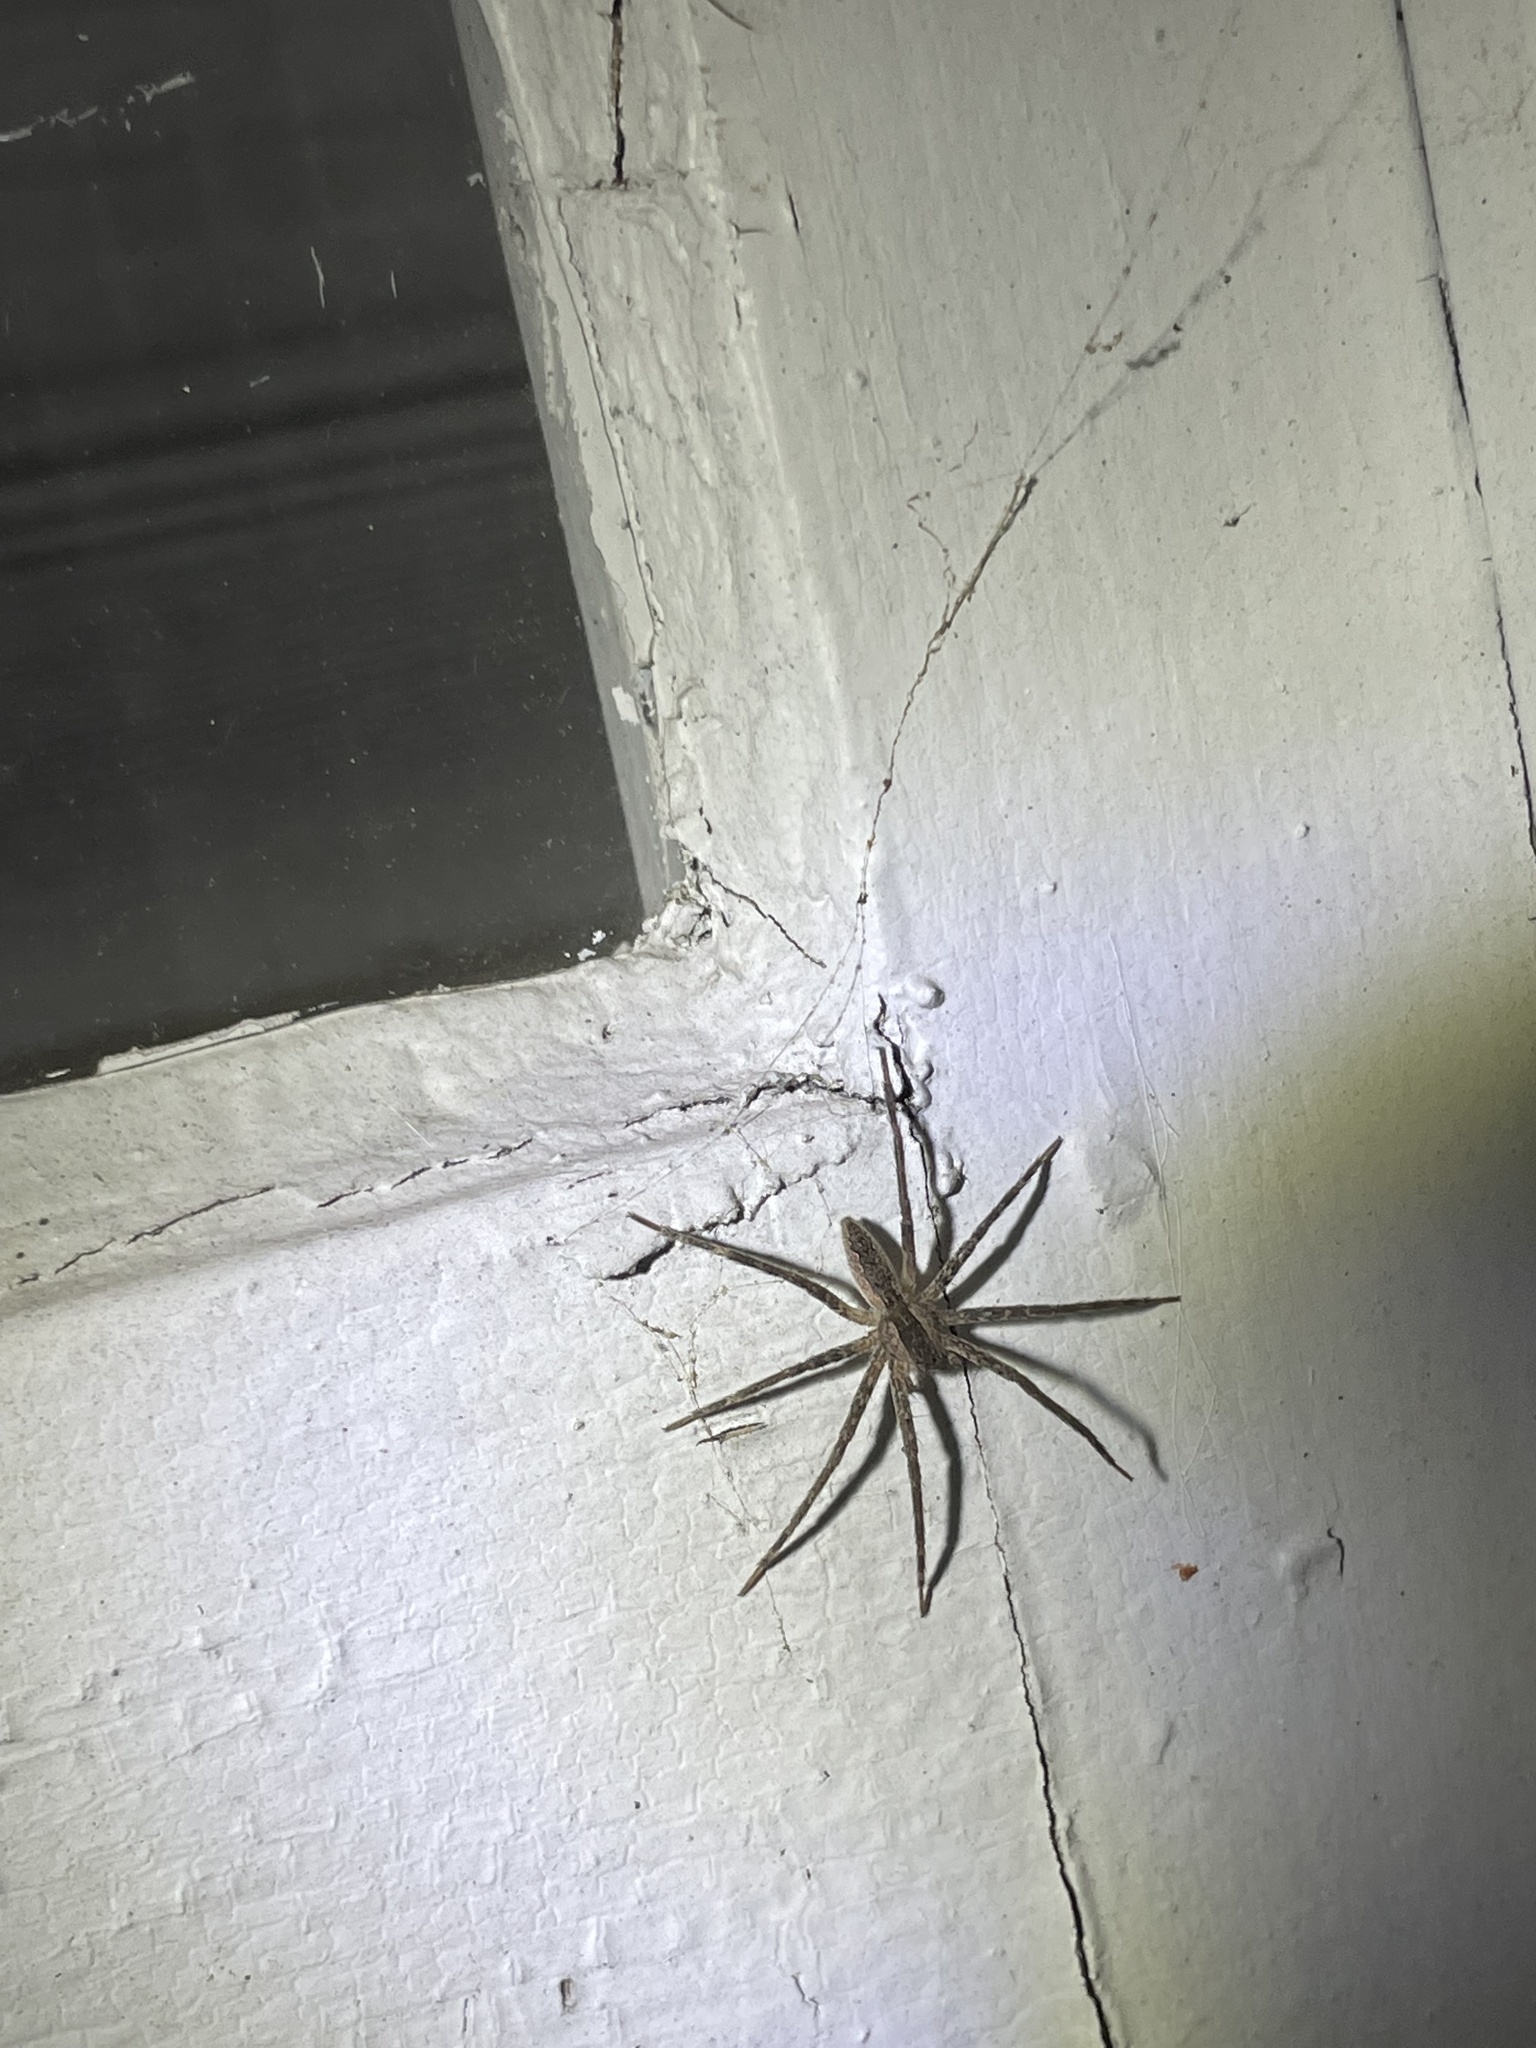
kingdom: Animalia
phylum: Arthropoda
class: Arachnida
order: Araneae
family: Pisauridae
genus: Pisaurina
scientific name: Pisaurina mira
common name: American nursery web spider
